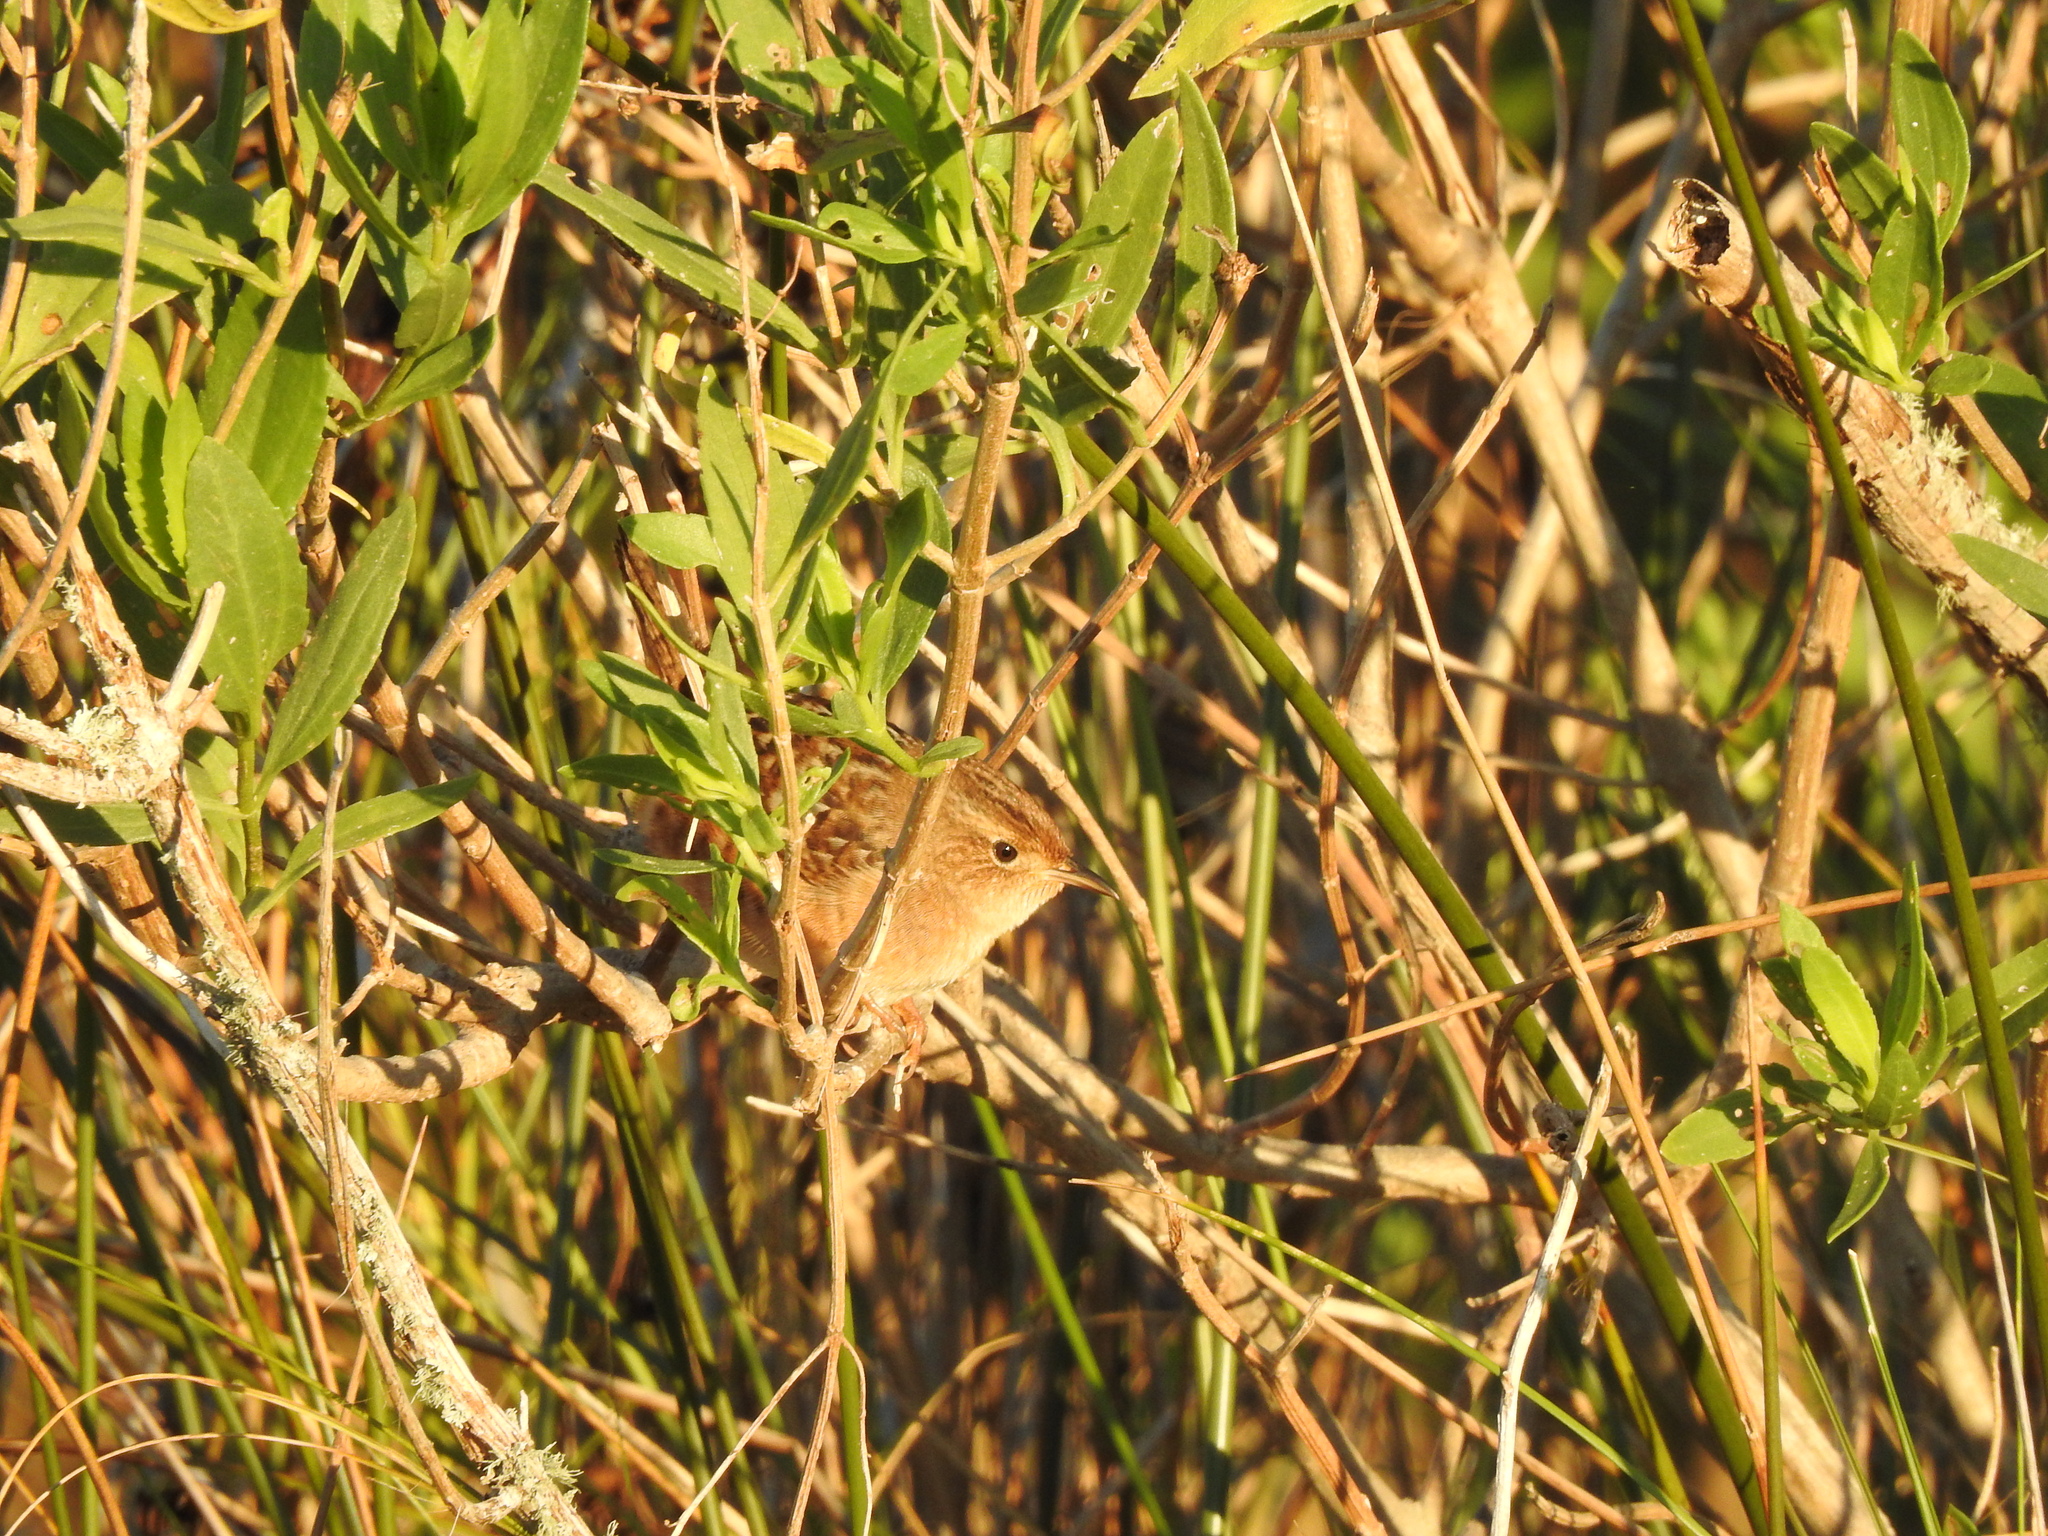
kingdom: Animalia
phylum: Chordata
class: Aves
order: Passeriformes
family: Troglodytidae
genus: Cistothorus
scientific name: Cistothorus platensis
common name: Sedge wren
